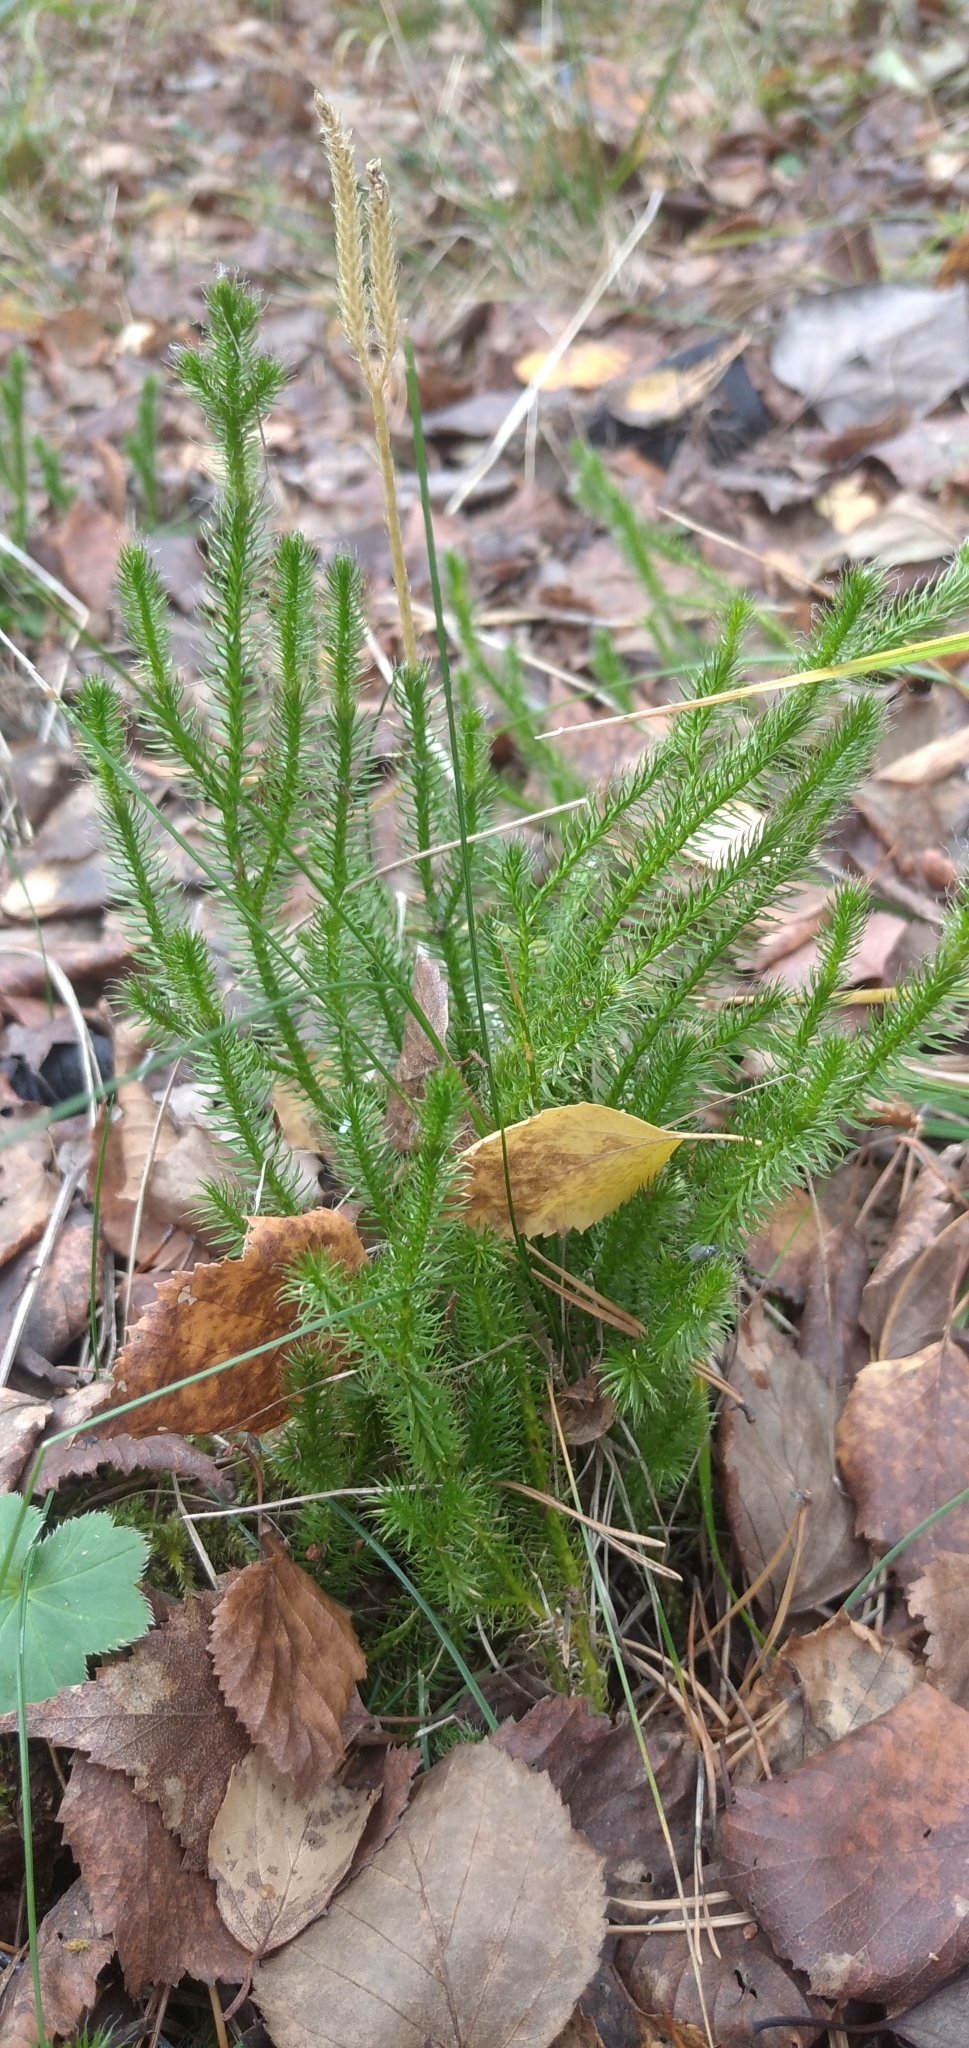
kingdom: Plantae
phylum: Tracheophyta
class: Lycopodiopsida
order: Lycopodiales
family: Lycopodiaceae
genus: Lycopodium
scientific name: Lycopodium clavatum
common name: Stag's-horn clubmoss
